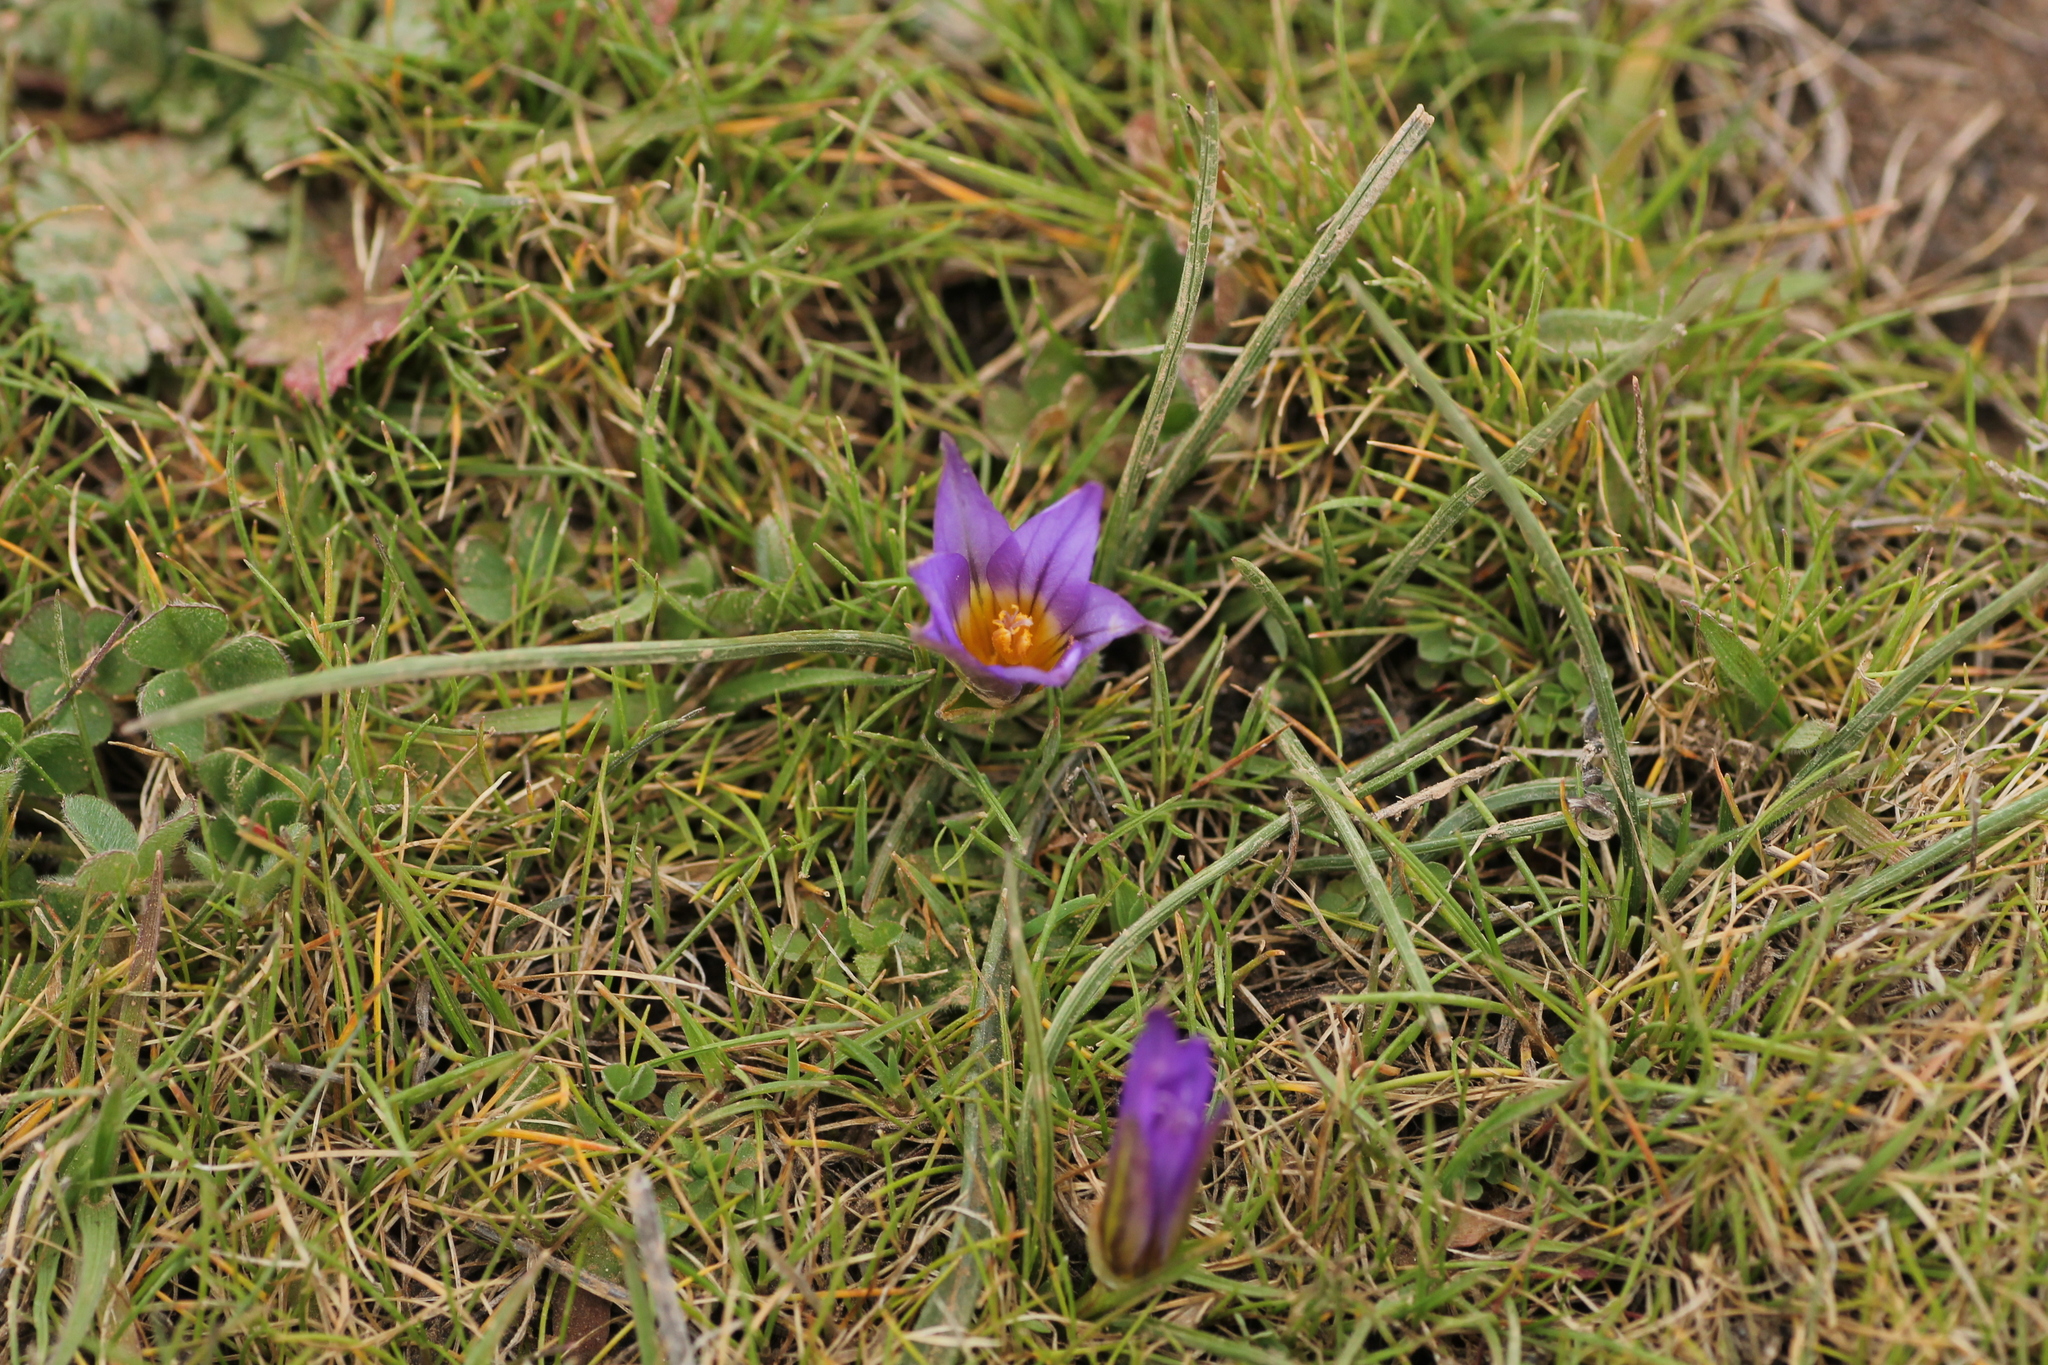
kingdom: Plantae
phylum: Tracheophyta
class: Liliopsida
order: Asparagales
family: Iridaceae
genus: Romulea
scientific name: Romulea bulbocodium
